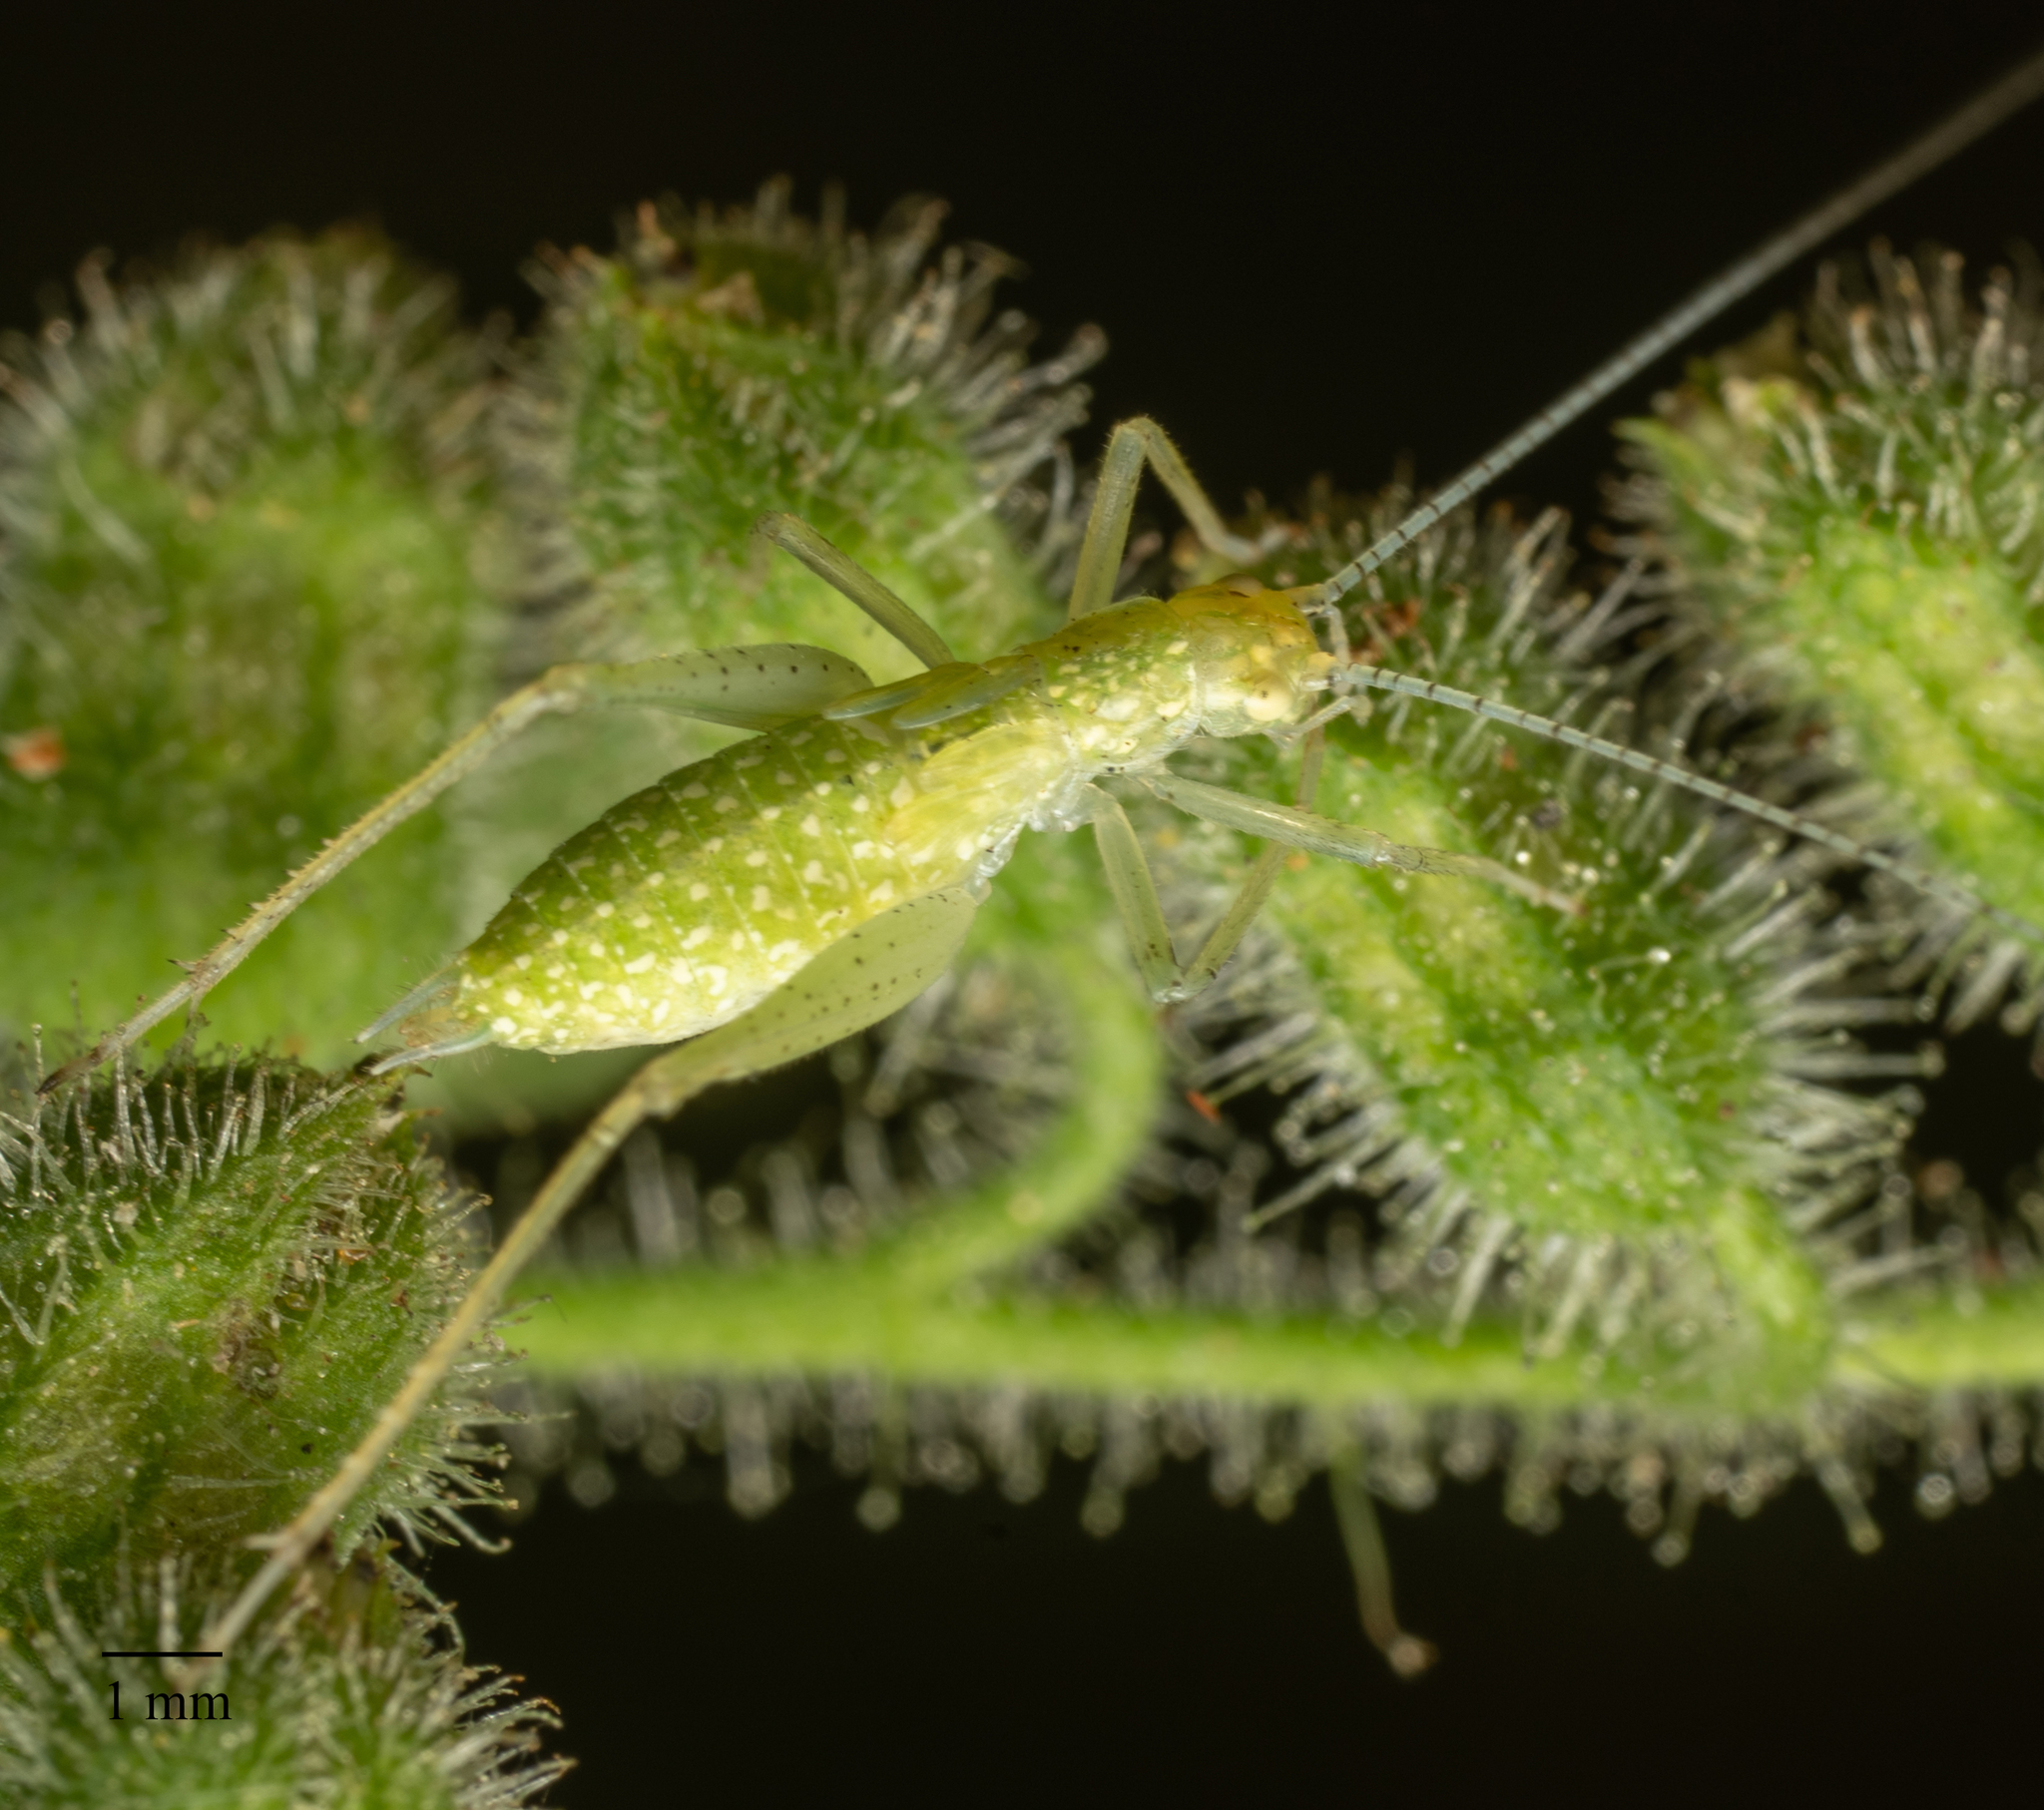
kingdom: Animalia
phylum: Arthropoda
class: Insecta
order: Orthoptera
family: Gryllidae
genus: Oecanthus
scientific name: Oecanthus
